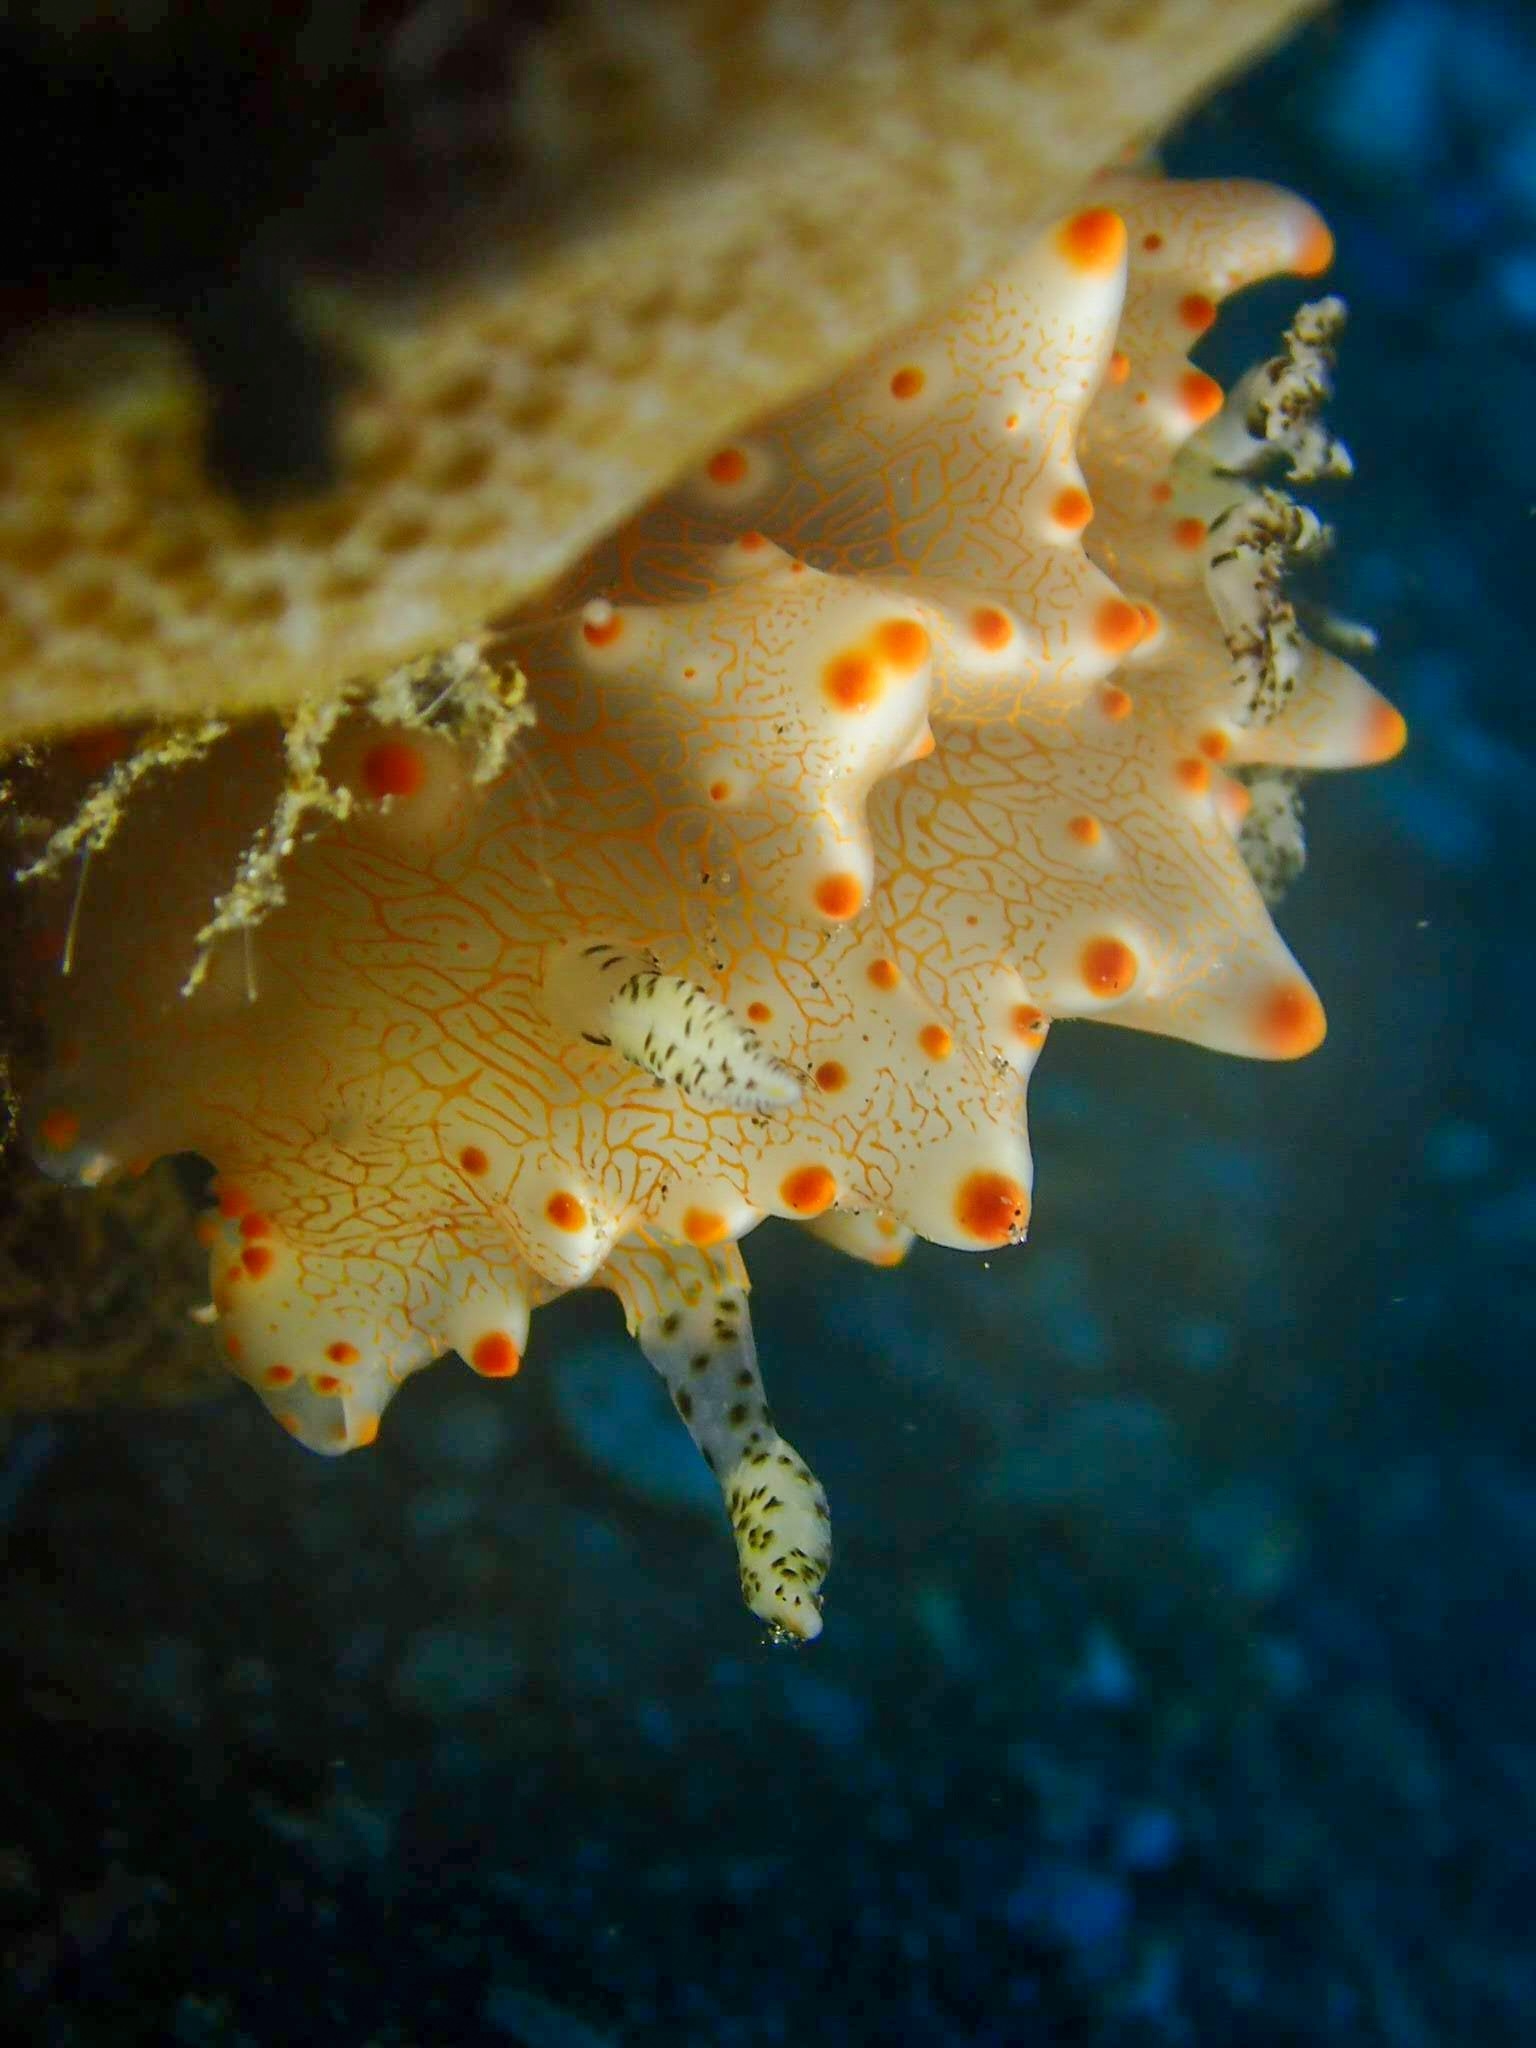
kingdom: Animalia
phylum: Mollusca
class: Gastropoda
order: Nudibranchia
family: Discodorididae
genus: Halgerda
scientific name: Halgerda batangas
